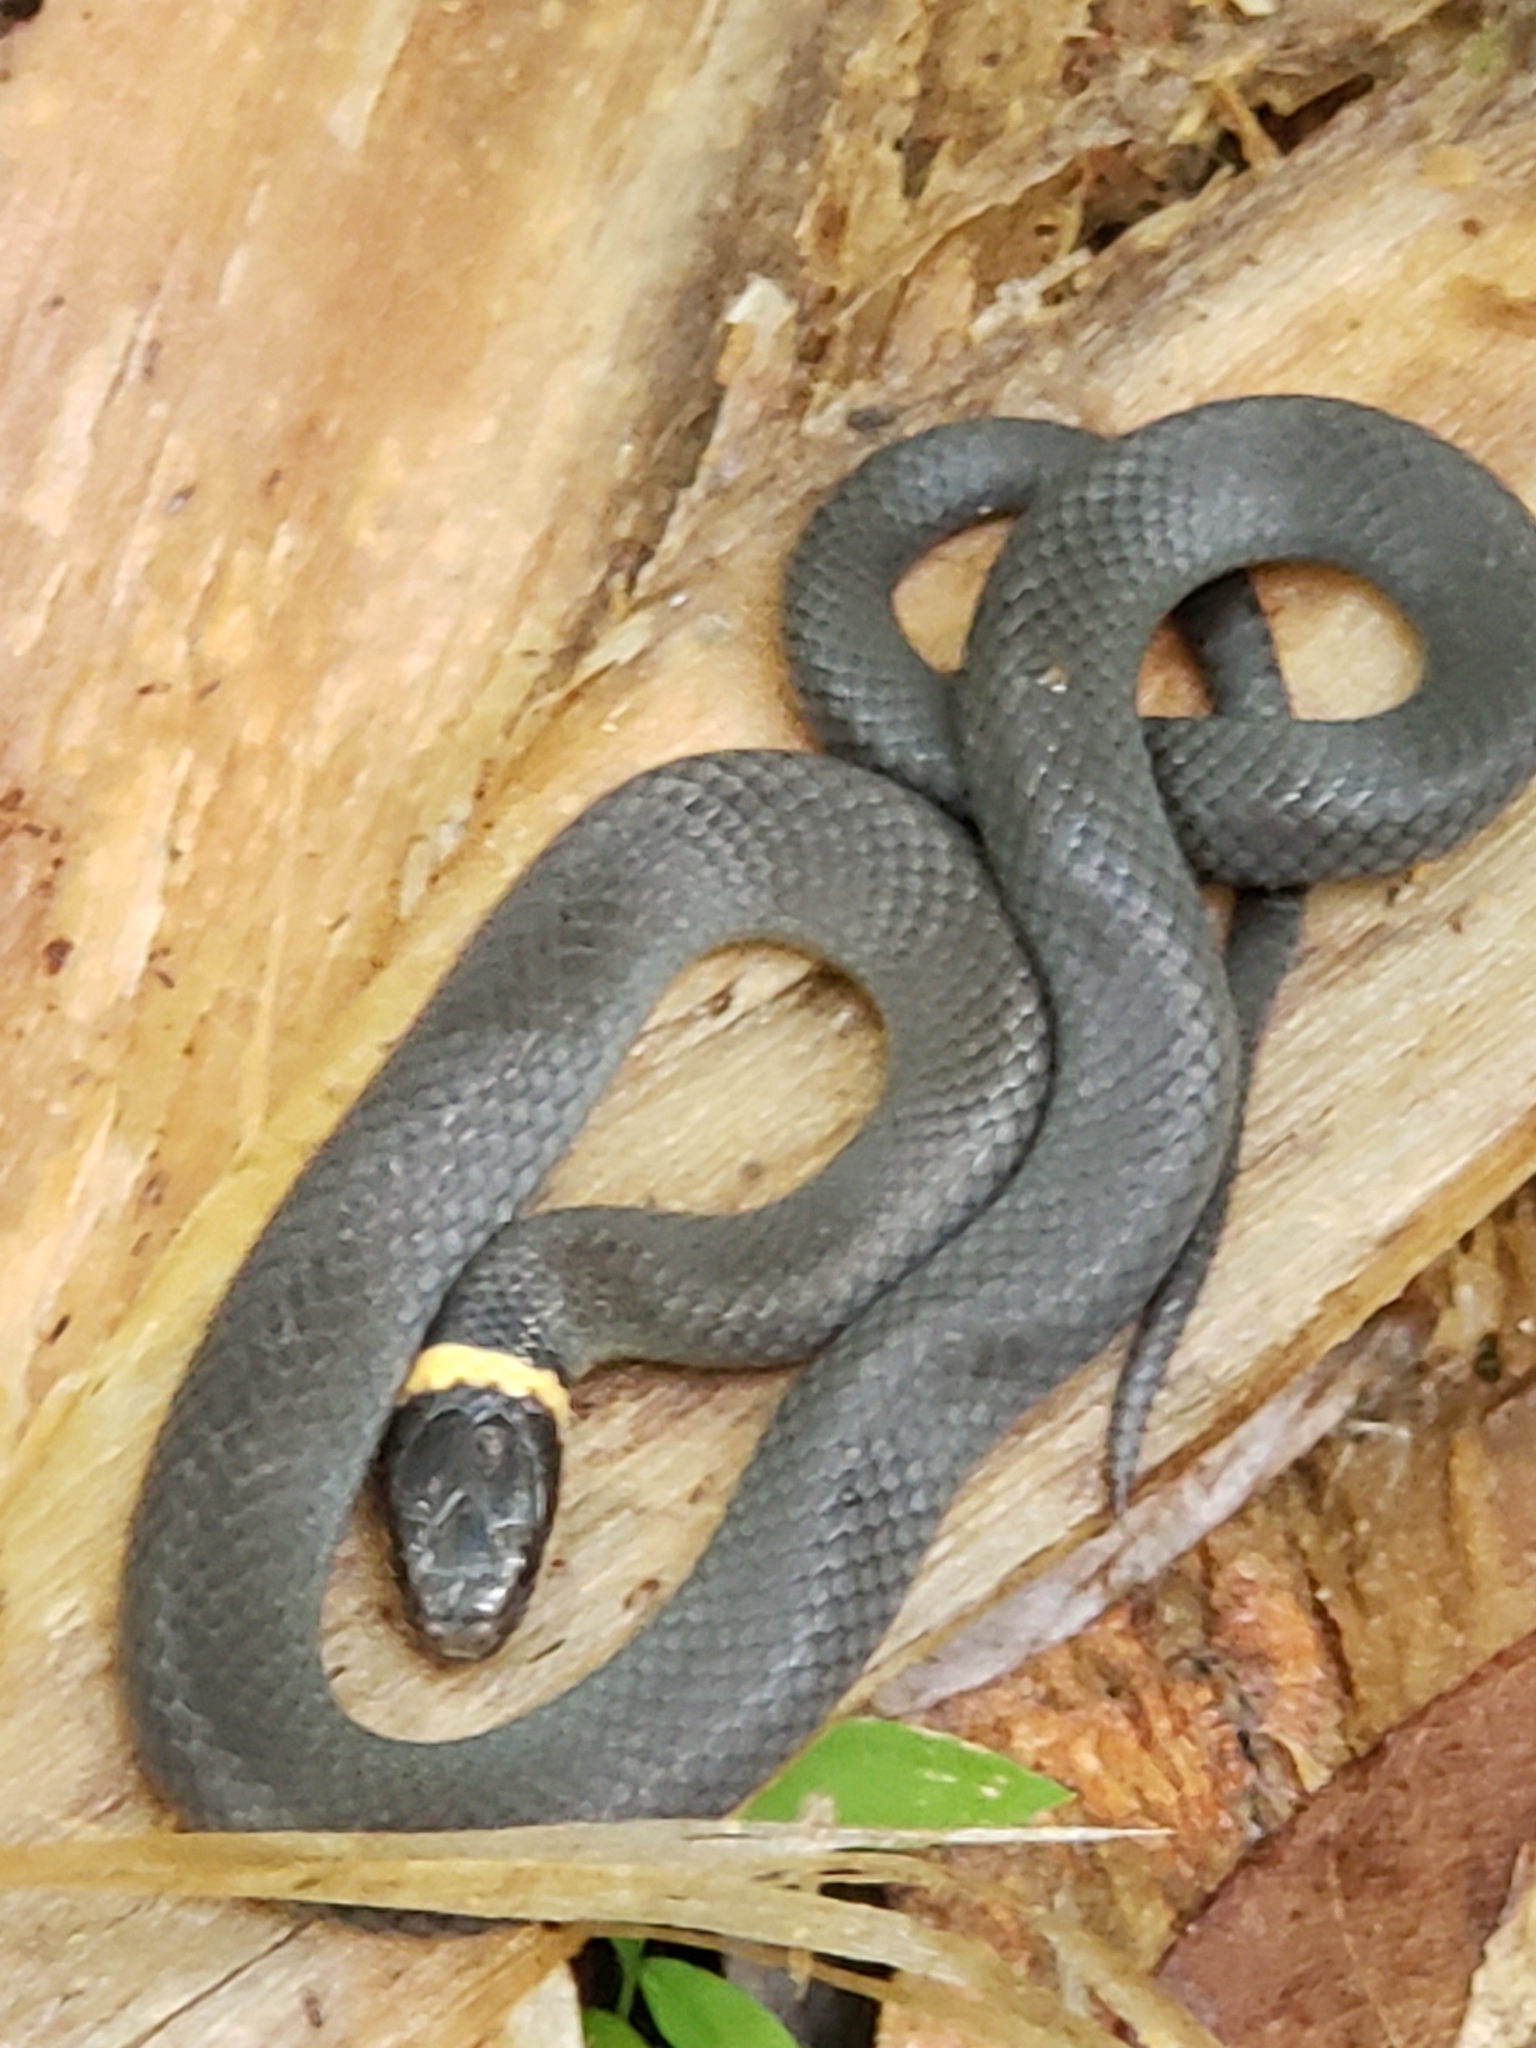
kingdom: Animalia
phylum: Chordata
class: Squamata
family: Colubridae
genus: Diadophis
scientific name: Diadophis punctatus
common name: Ringneck snake
